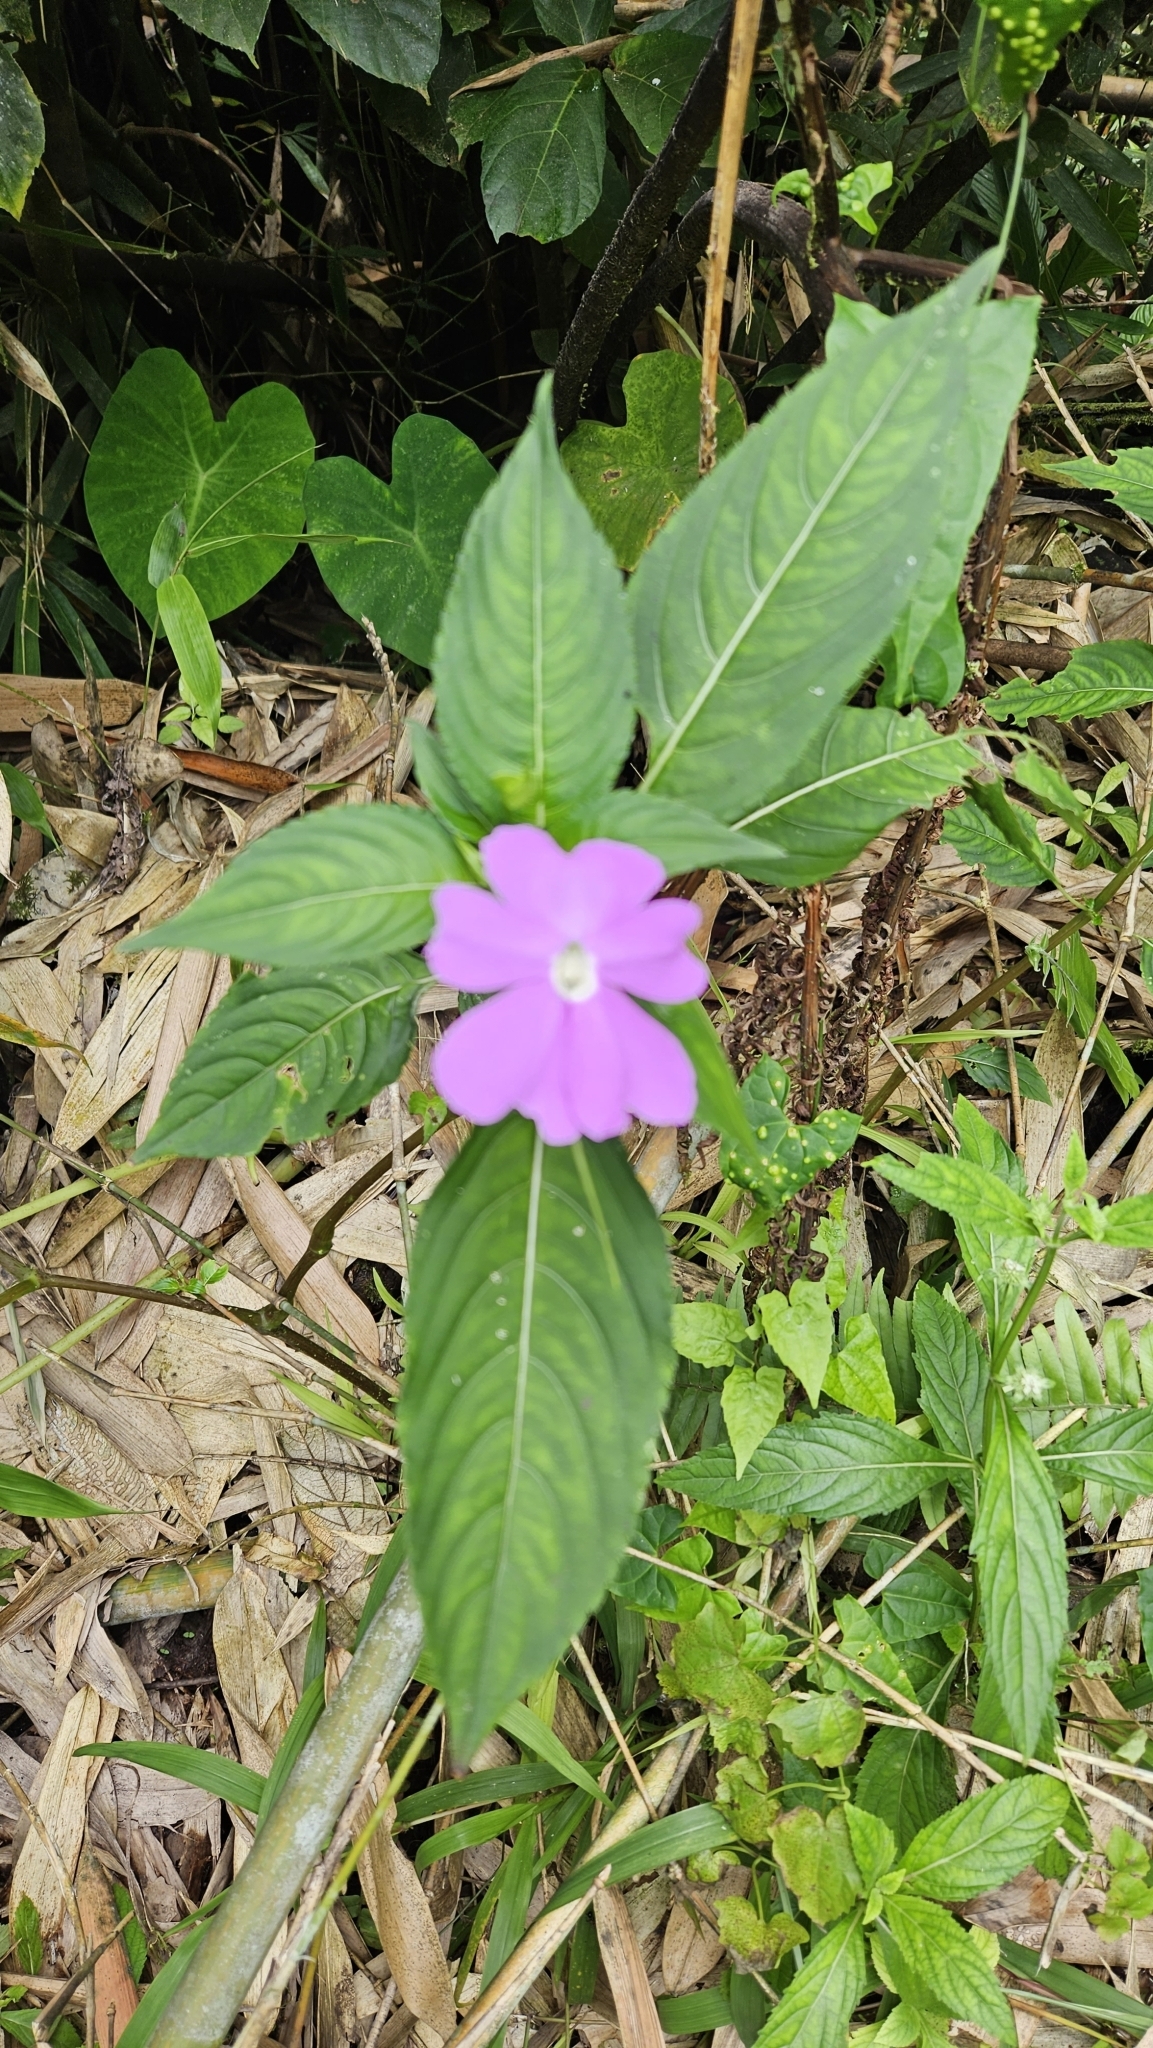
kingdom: Plantae
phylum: Tracheophyta
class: Magnoliopsida
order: Ericales
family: Balsaminaceae
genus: Impatiens
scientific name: Impatiens platypetala
